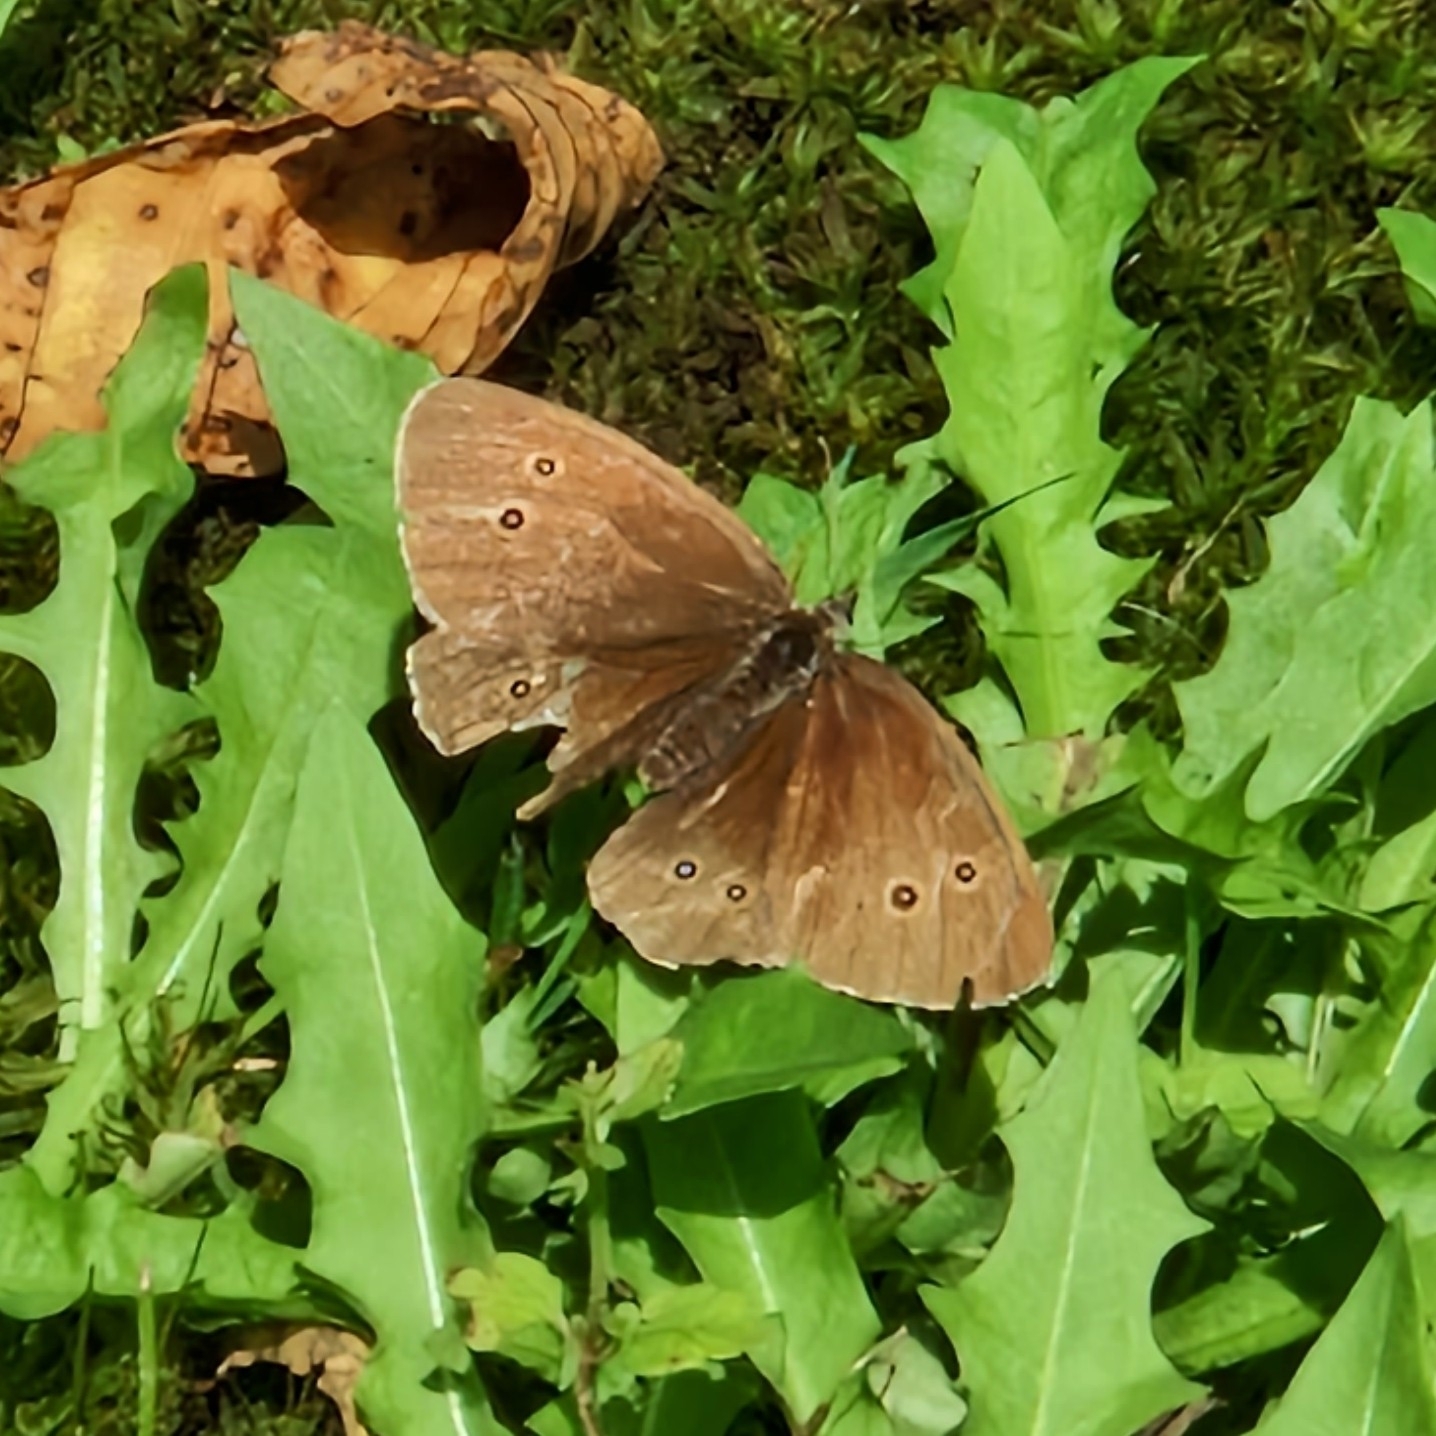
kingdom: Animalia
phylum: Arthropoda
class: Insecta
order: Lepidoptera
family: Nymphalidae
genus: Aphantopus
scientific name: Aphantopus hyperantus
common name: Ringlet
